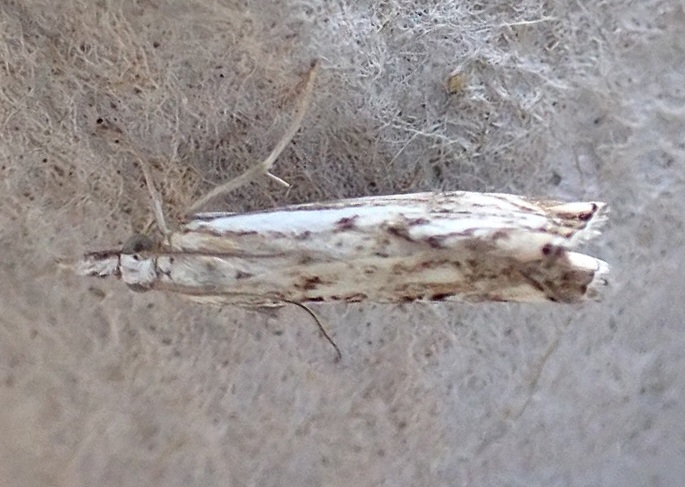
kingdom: Animalia
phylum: Arthropoda
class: Insecta
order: Lepidoptera
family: Crambidae
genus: Catoptria
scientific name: Catoptria falsella
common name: Chequered grass-veneer
